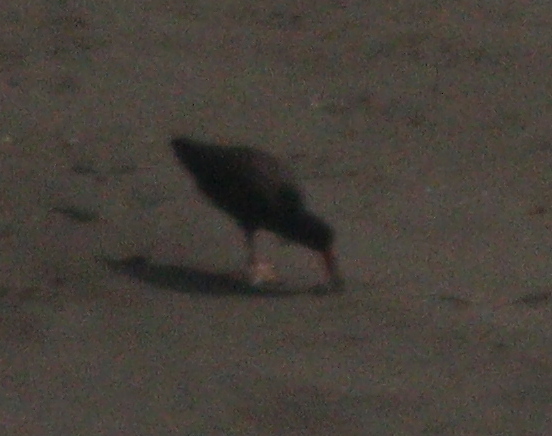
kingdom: Animalia
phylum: Chordata
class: Aves
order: Charadriiformes
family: Haematopodidae
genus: Haematopus
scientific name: Haematopus ater
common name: Blackish oystercatcher
